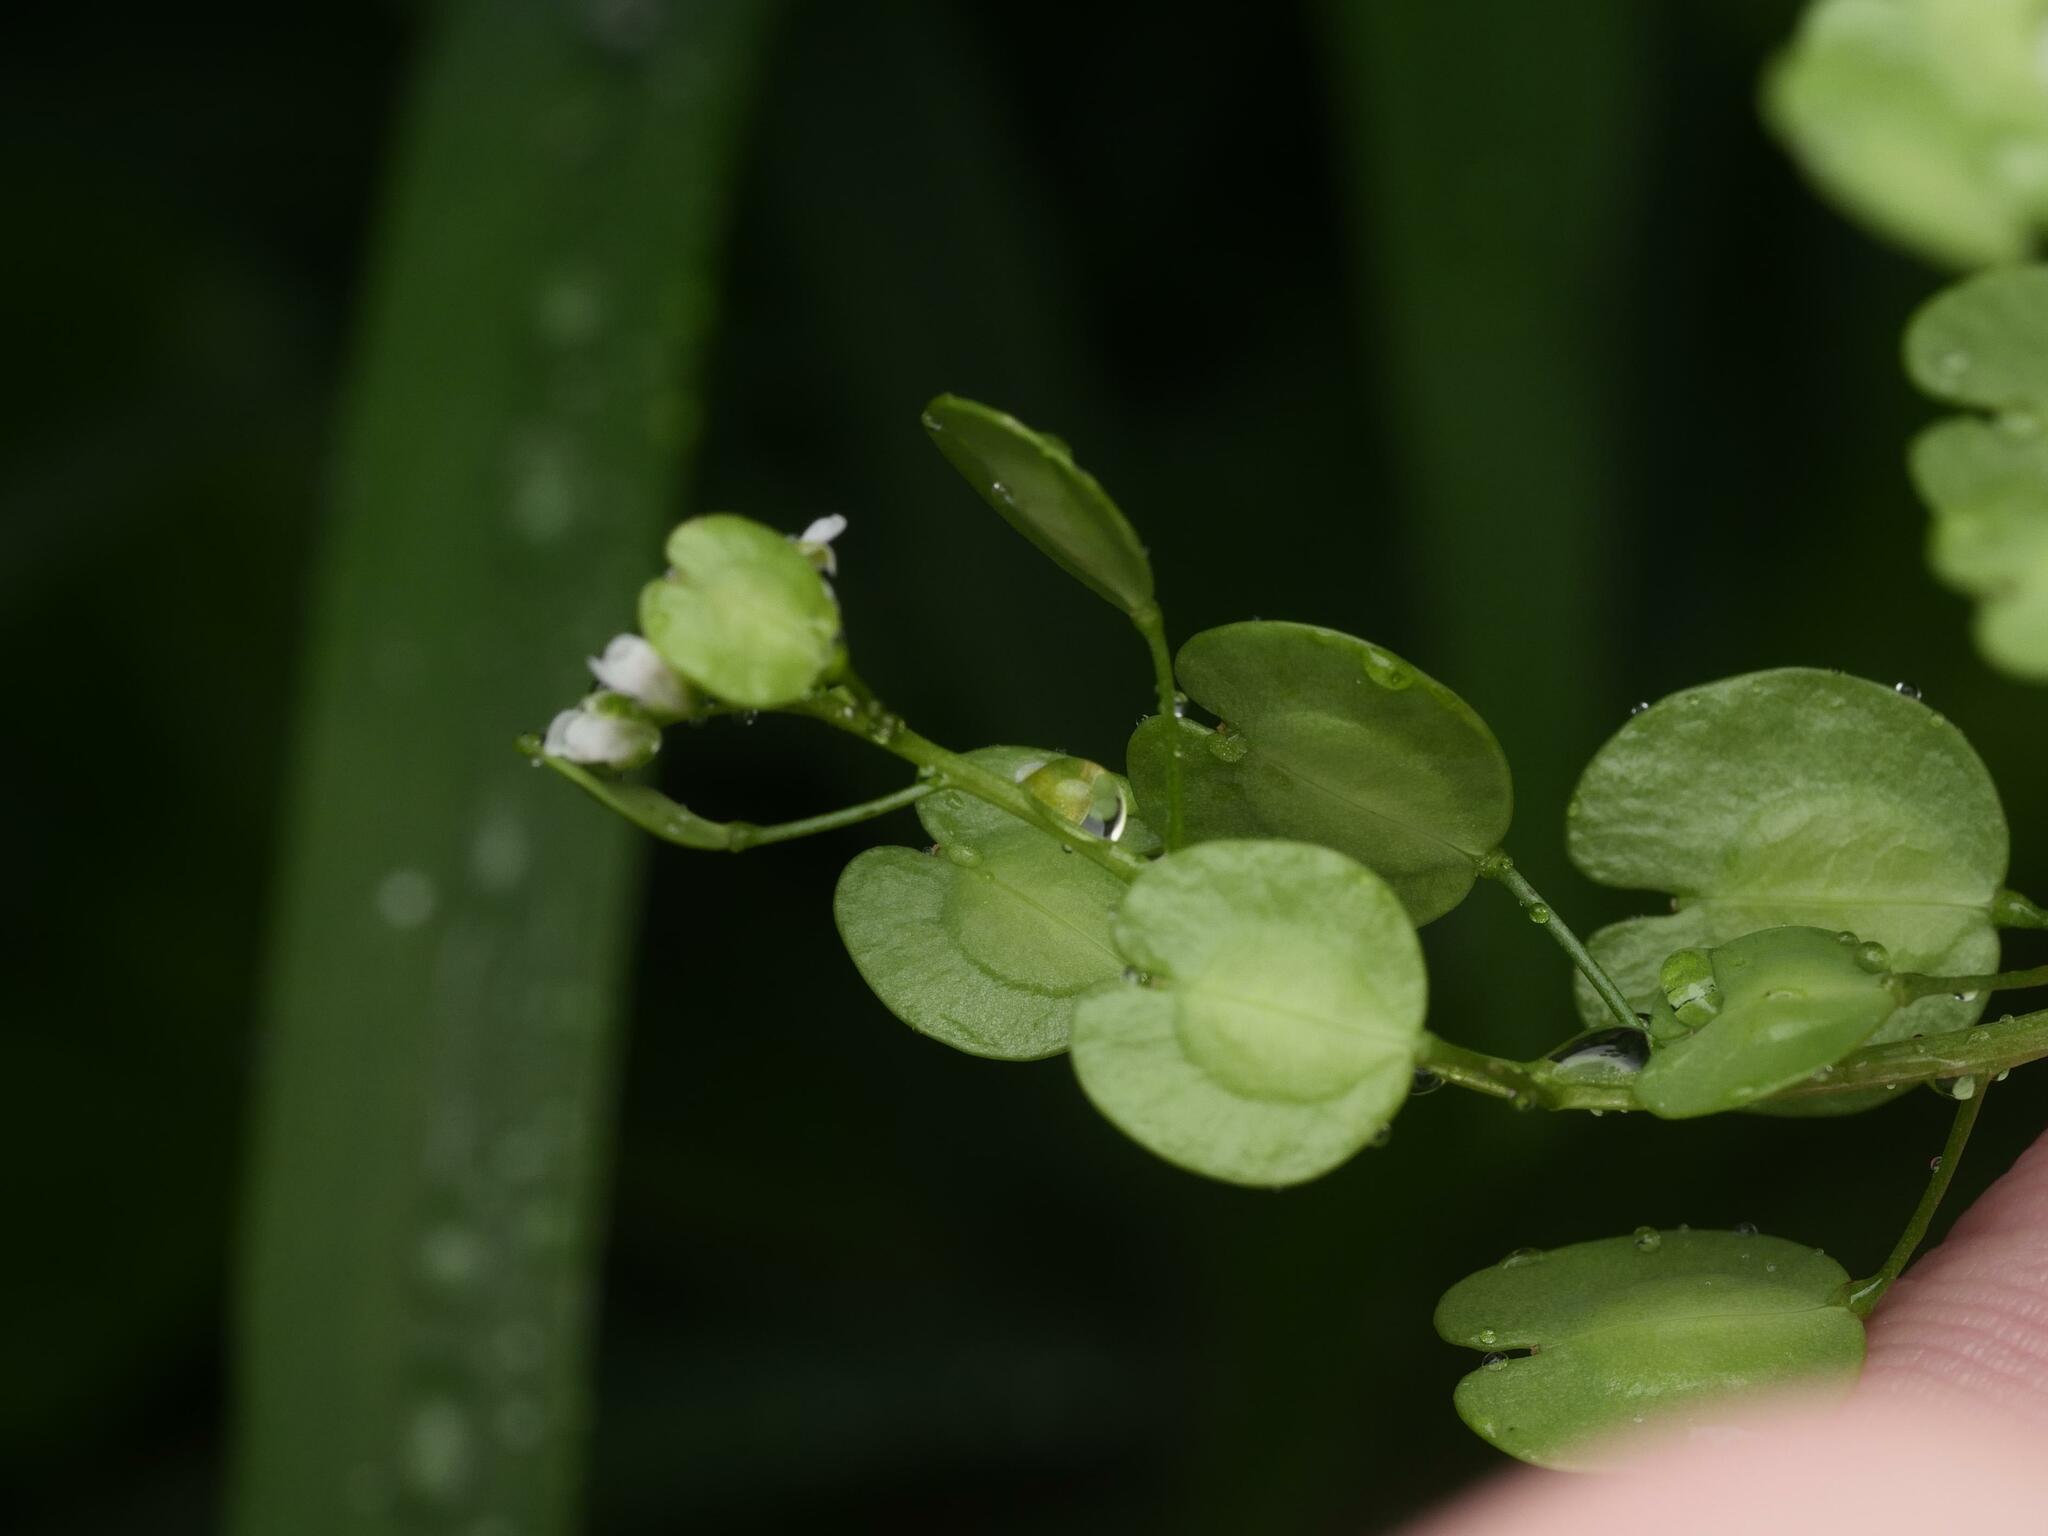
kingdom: Plantae
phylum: Tracheophyta
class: Magnoliopsida
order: Brassicales
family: Brassicaceae
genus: Thlaspi
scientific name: Thlaspi arvense
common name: Field pennycress
